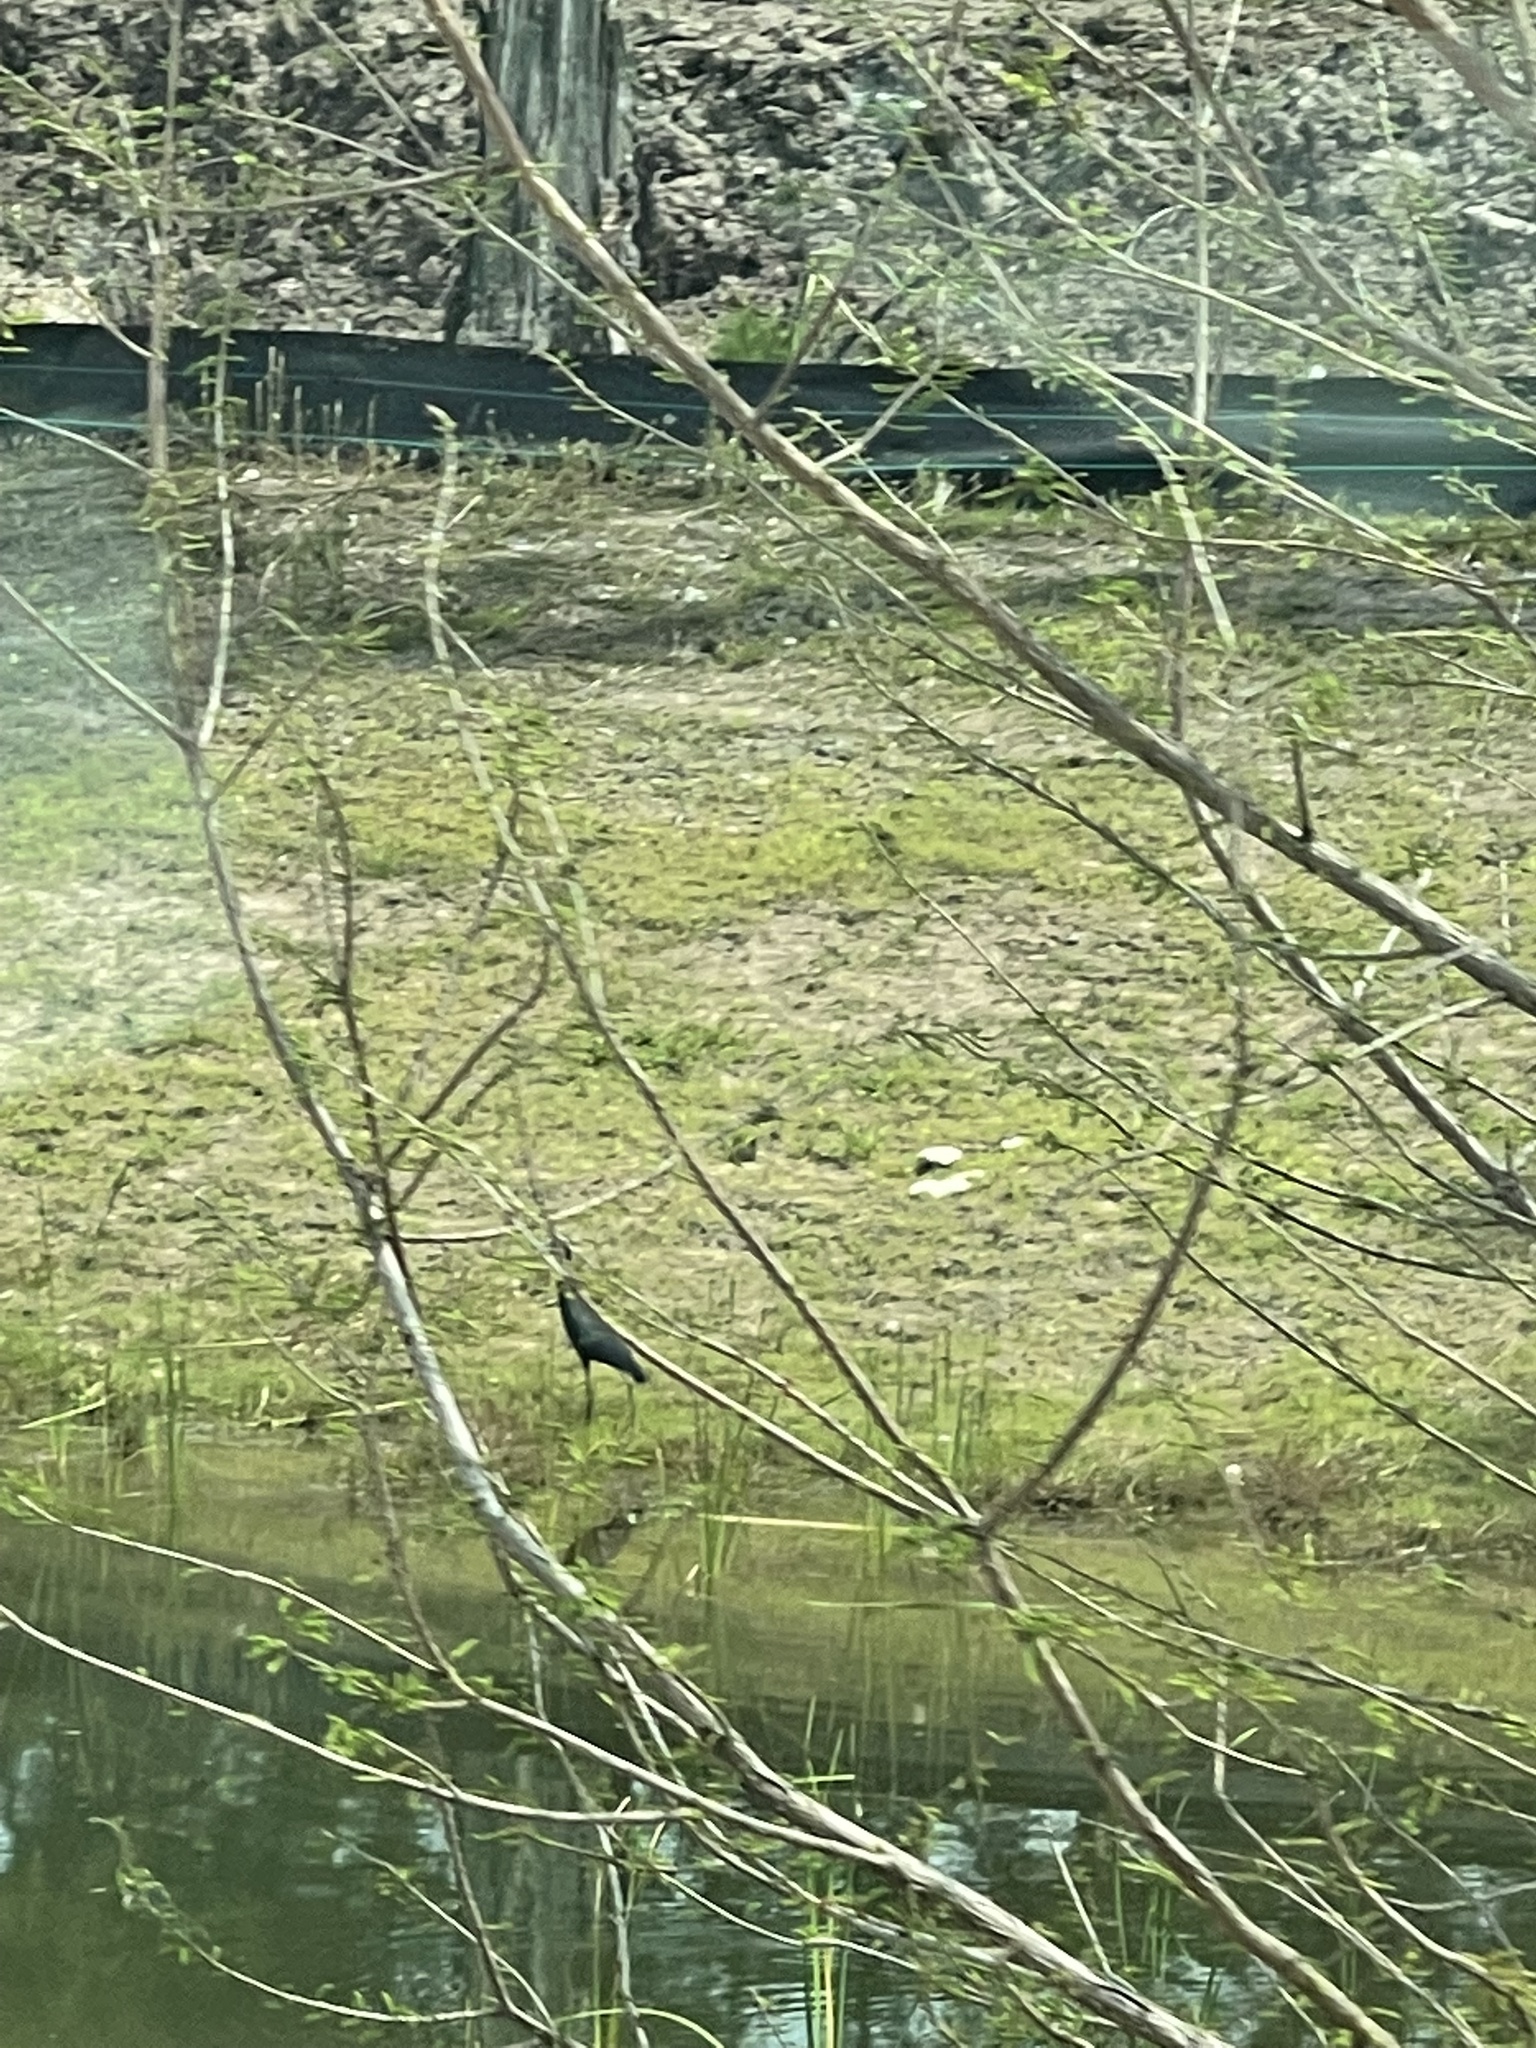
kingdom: Animalia
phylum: Chordata
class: Aves
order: Pelecaniformes
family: Ardeidae
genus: Egretta
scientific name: Egretta caerulea
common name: Little blue heron
